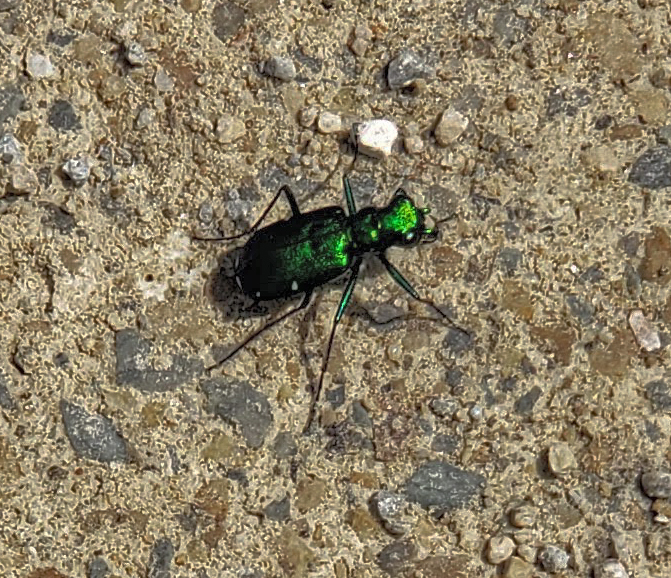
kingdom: Animalia
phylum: Arthropoda
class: Insecta
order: Coleoptera
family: Carabidae
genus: Cicindela
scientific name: Cicindela sexguttata
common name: Six-spotted tiger beetle
